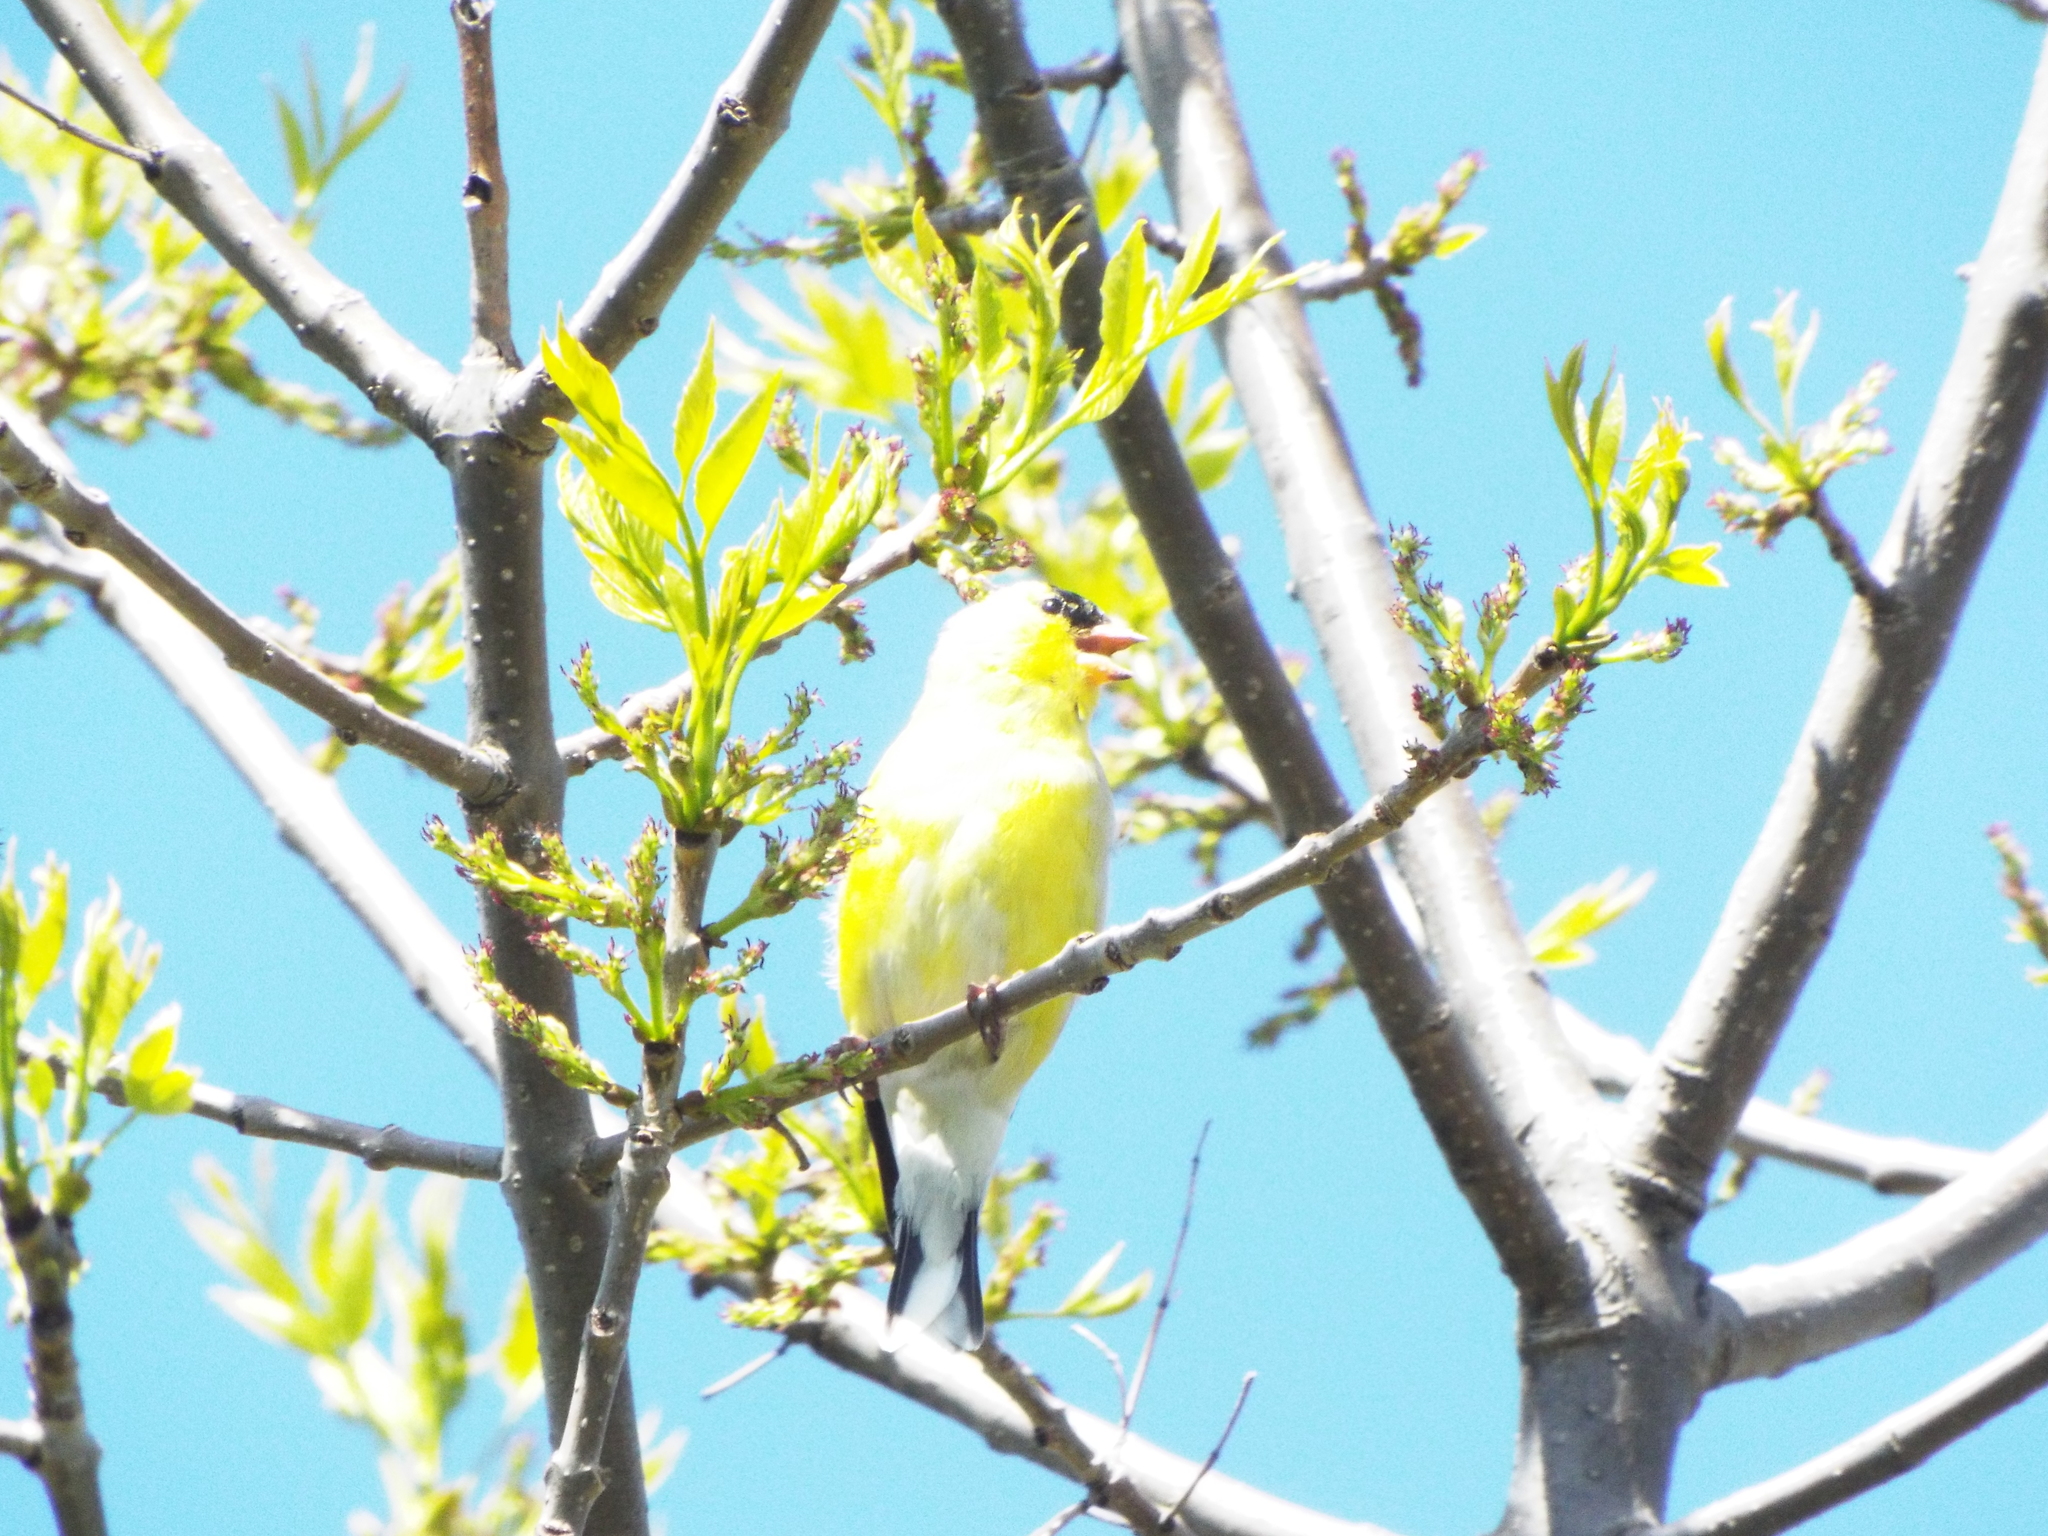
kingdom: Animalia
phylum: Chordata
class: Aves
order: Passeriformes
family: Fringillidae
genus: Spinus
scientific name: Spinus tristis
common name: American goldfinch
